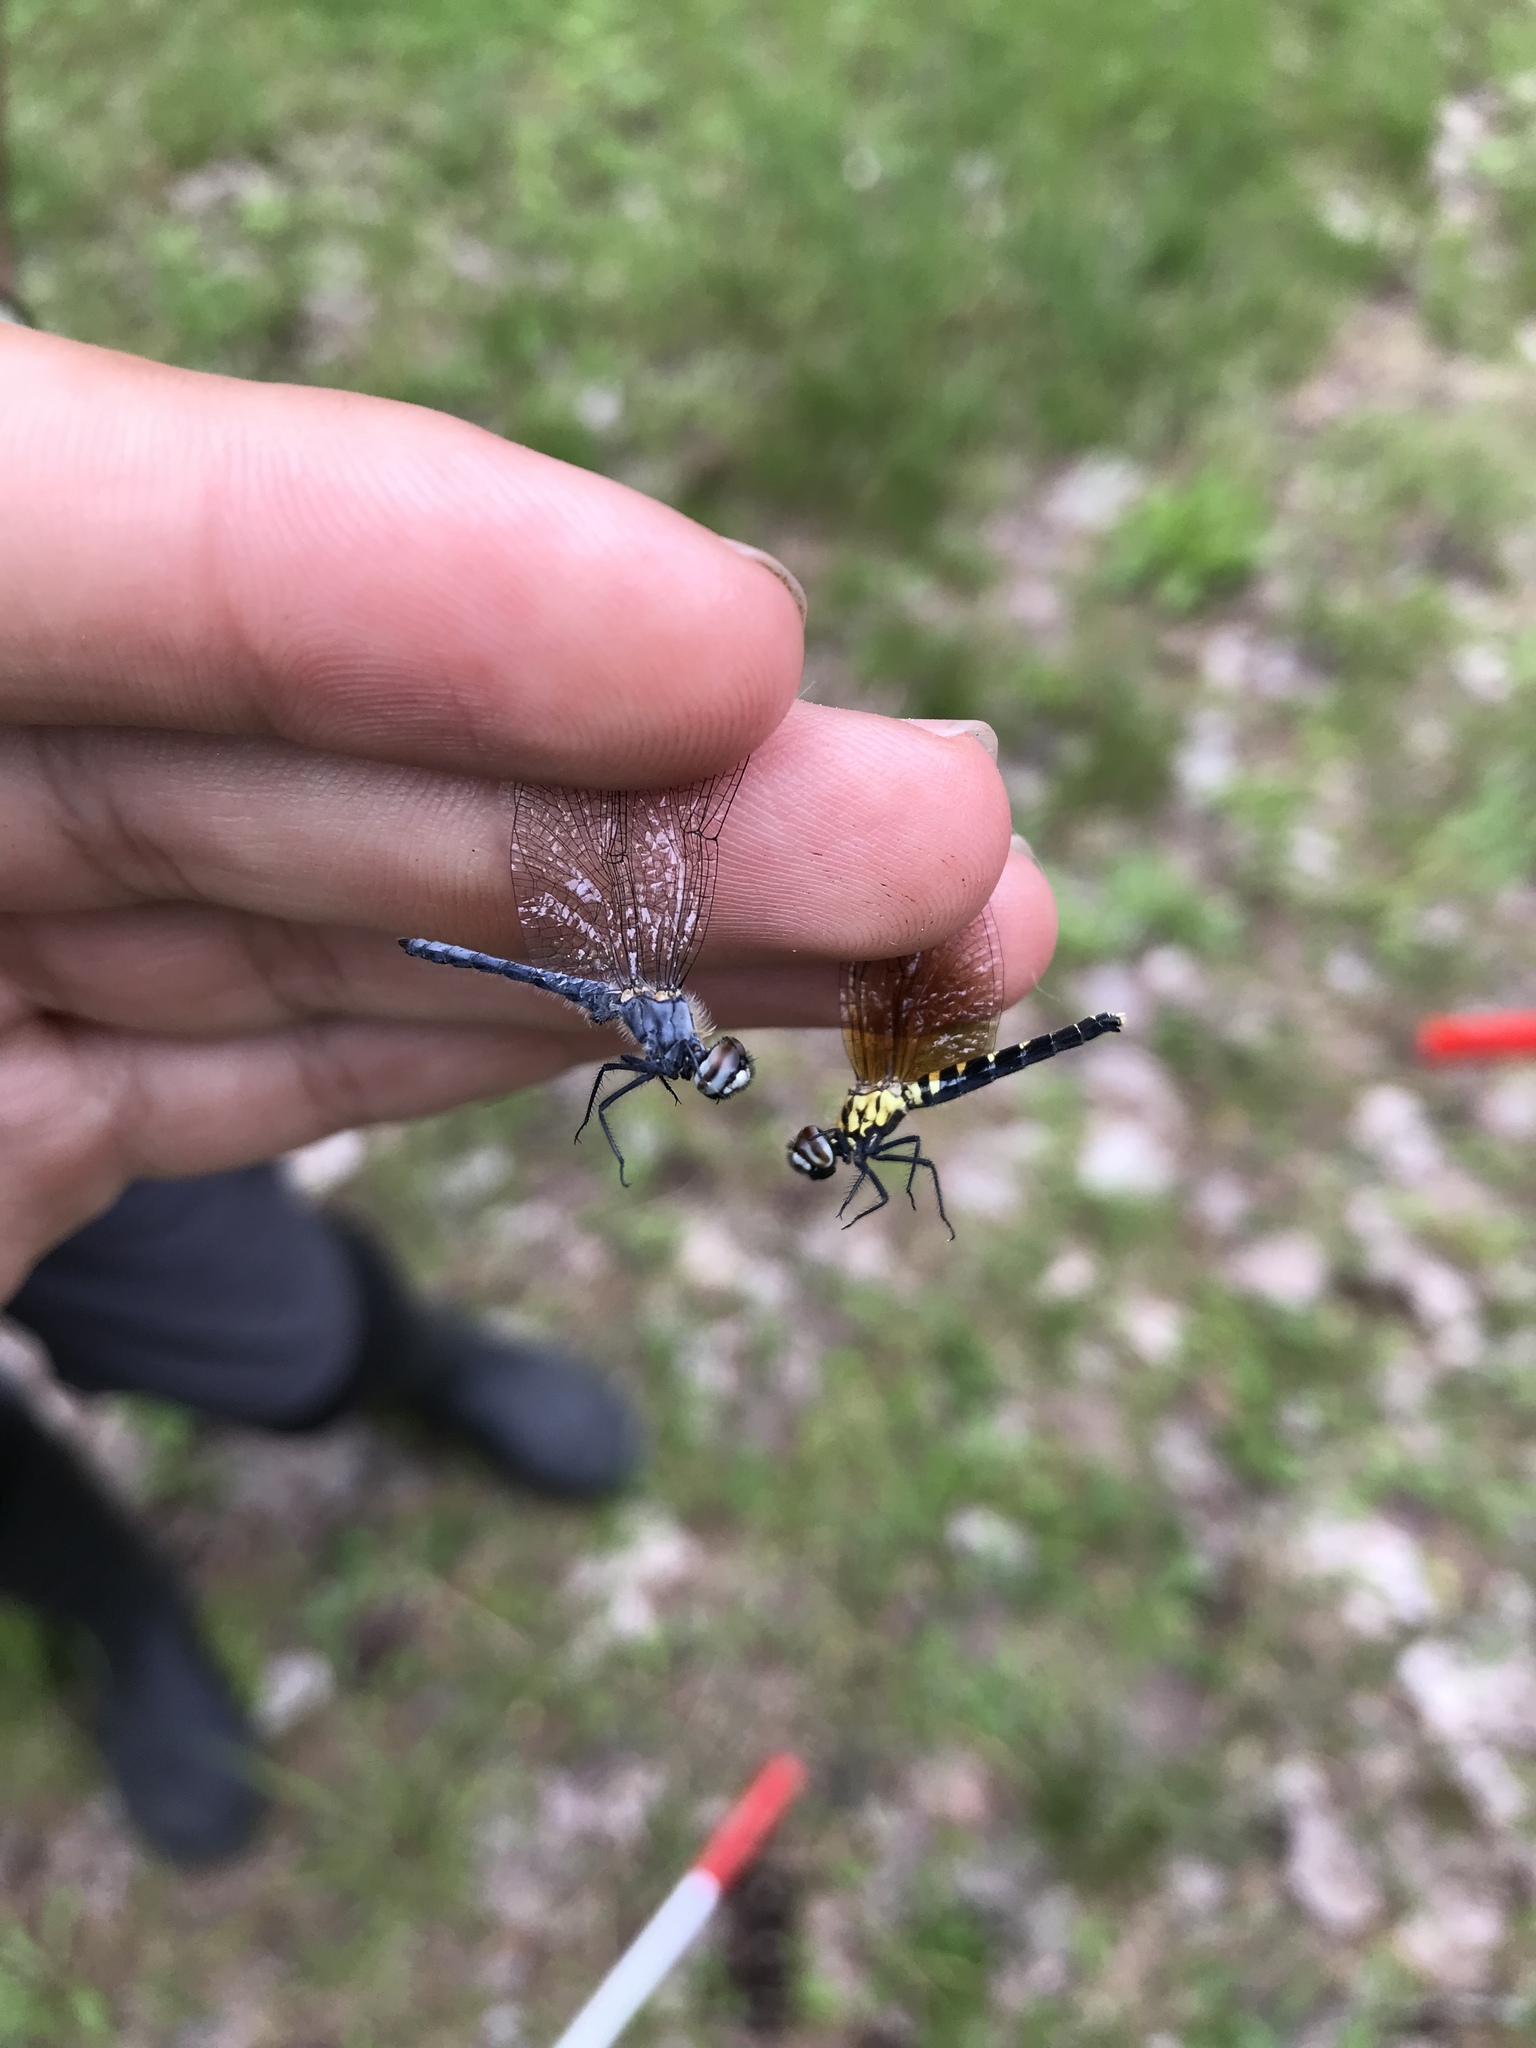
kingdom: Animalia
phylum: Arthropoda
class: Insecta
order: Odonata
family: Libellulidae
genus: Nannothemis
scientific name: Nannothemis bella
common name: Elfin skimmer
